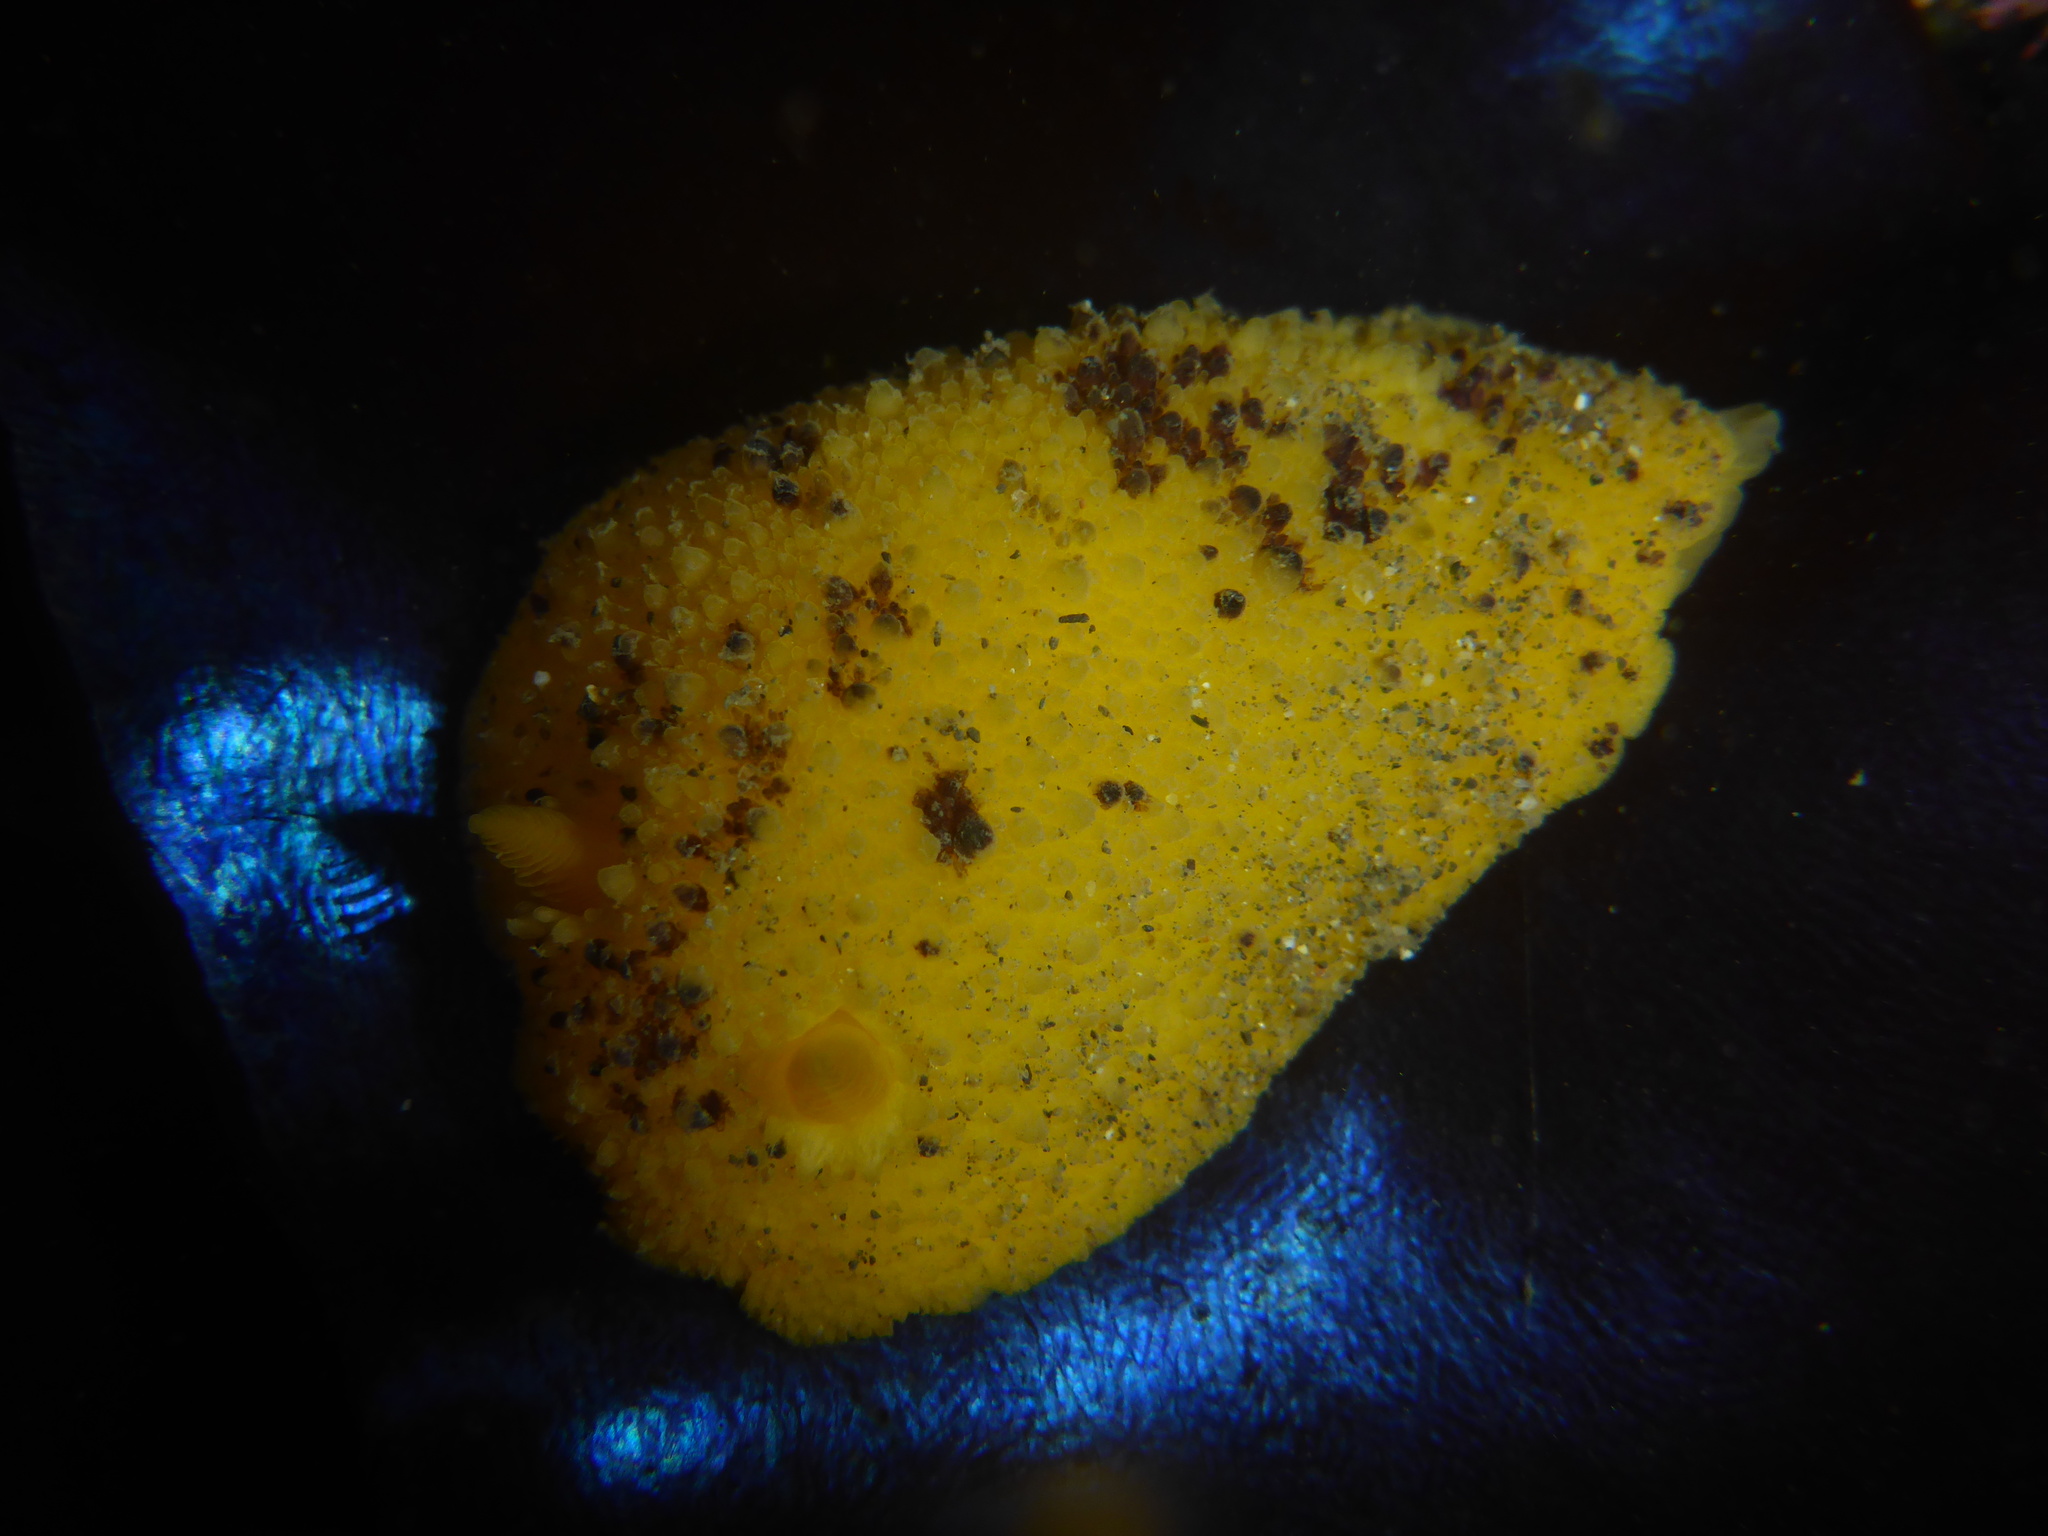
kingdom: Animalia
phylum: Mollusca
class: Gastropoda
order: Nudibranchia
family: Dorididae
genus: Doris
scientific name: Doris montereyensis
